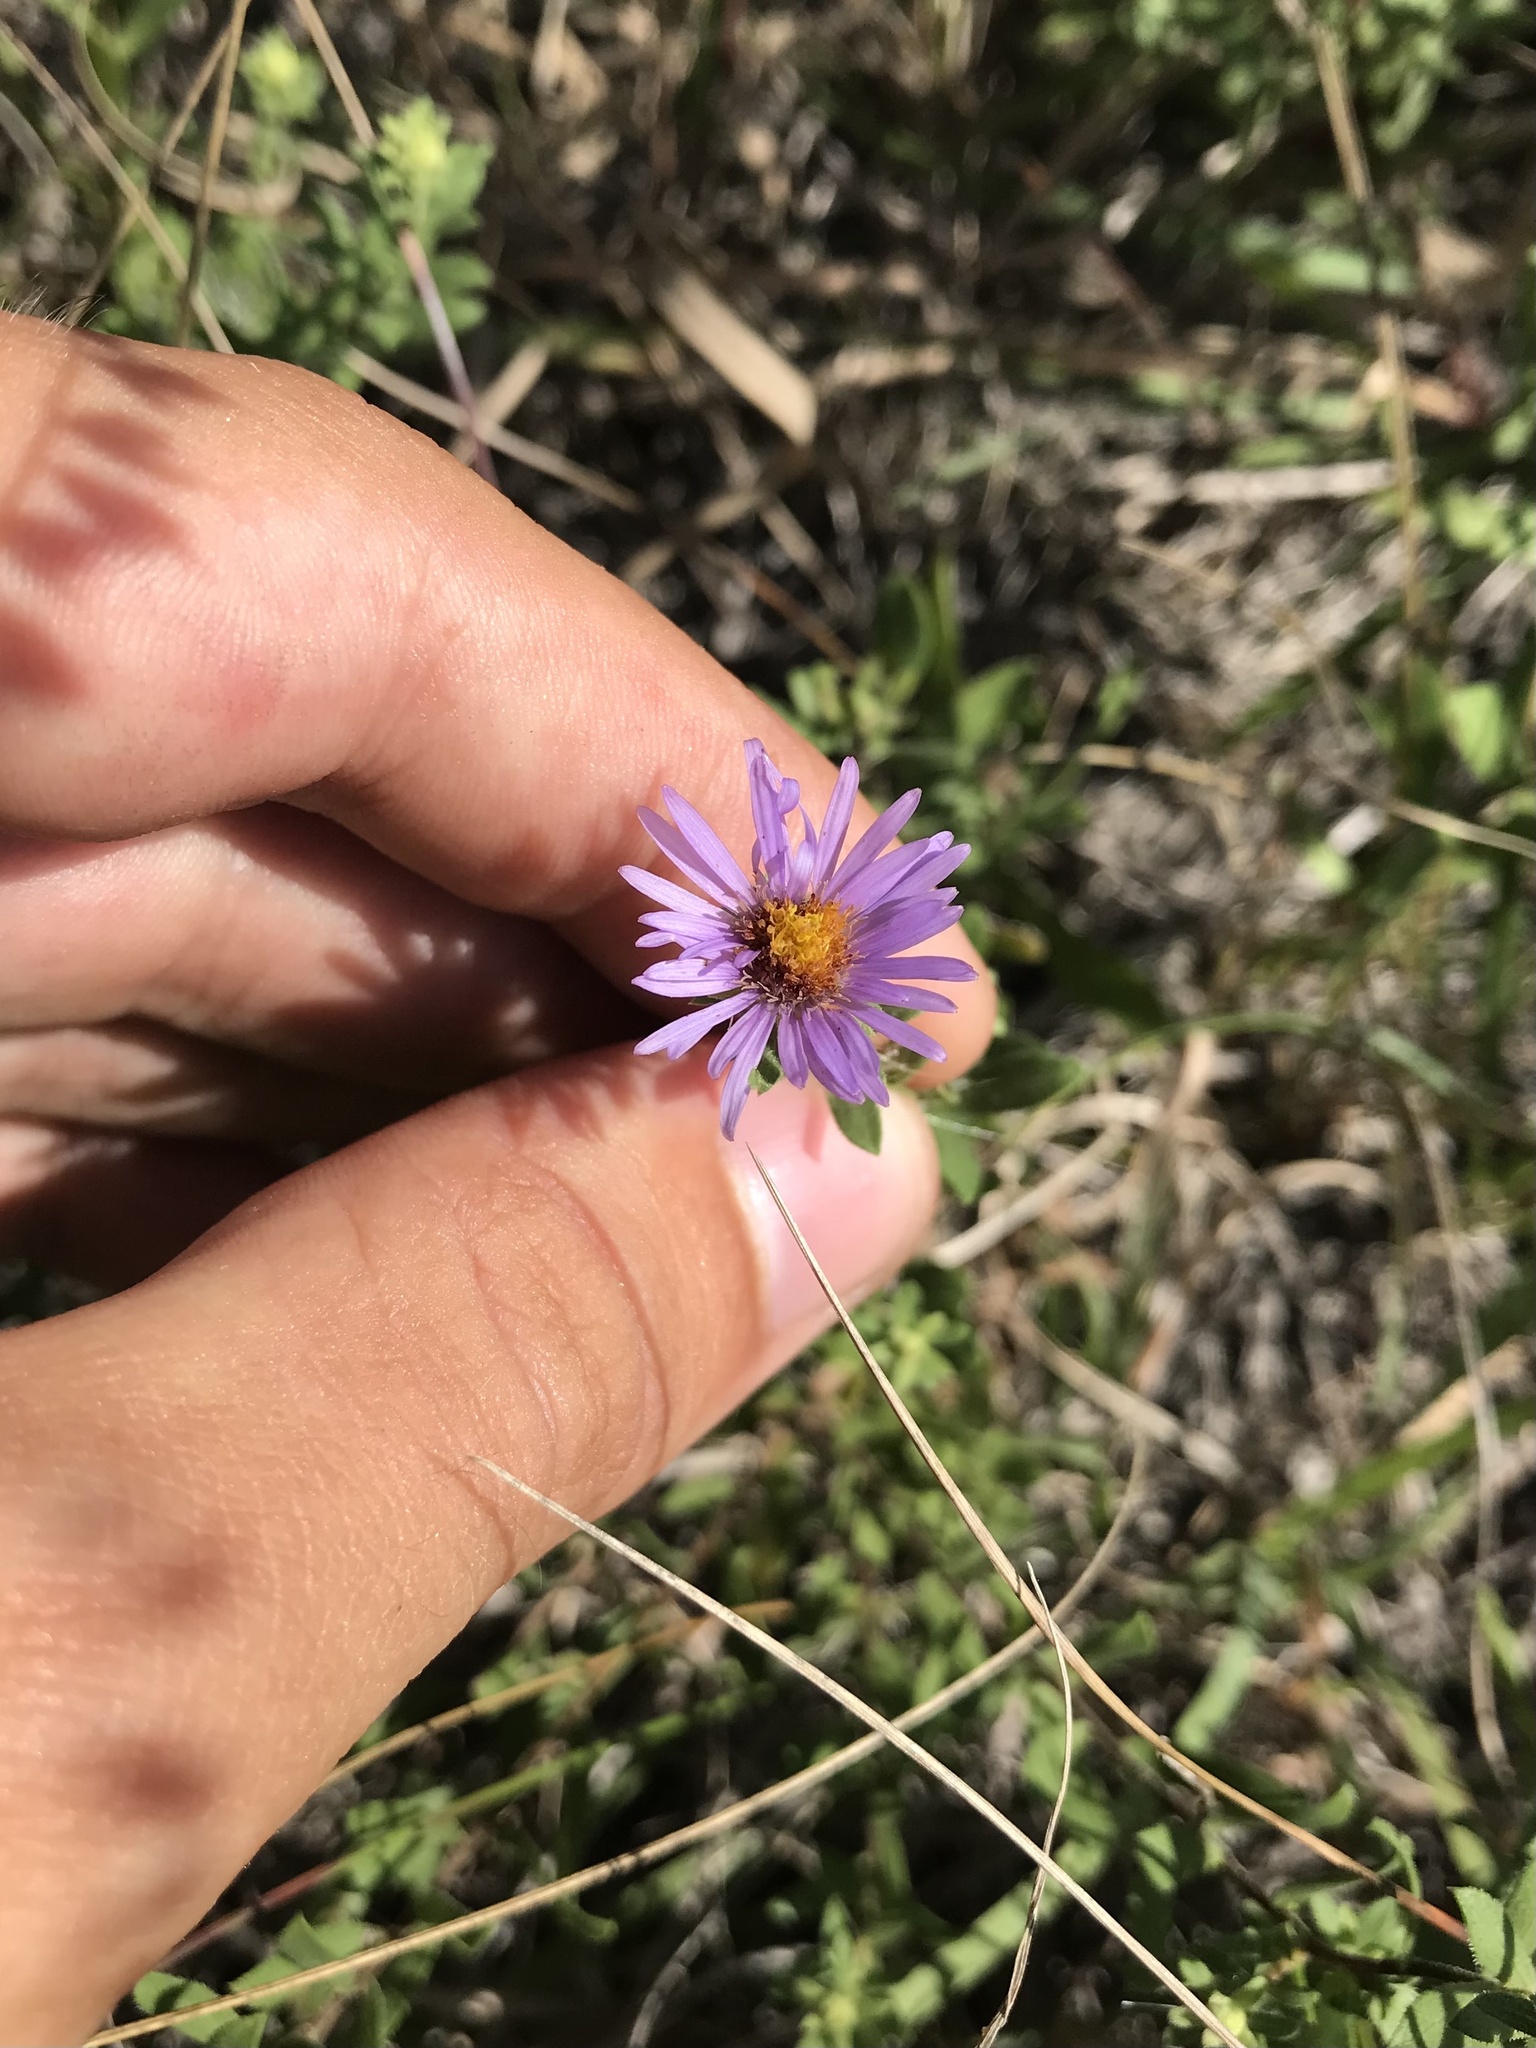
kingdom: Plantae
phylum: Tracheophyta
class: Magnoliopsida
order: Asterales
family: Asteraceae
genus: Symphyotrichum
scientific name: Symphyotrichum oblongifolium
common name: Aromatic aster
